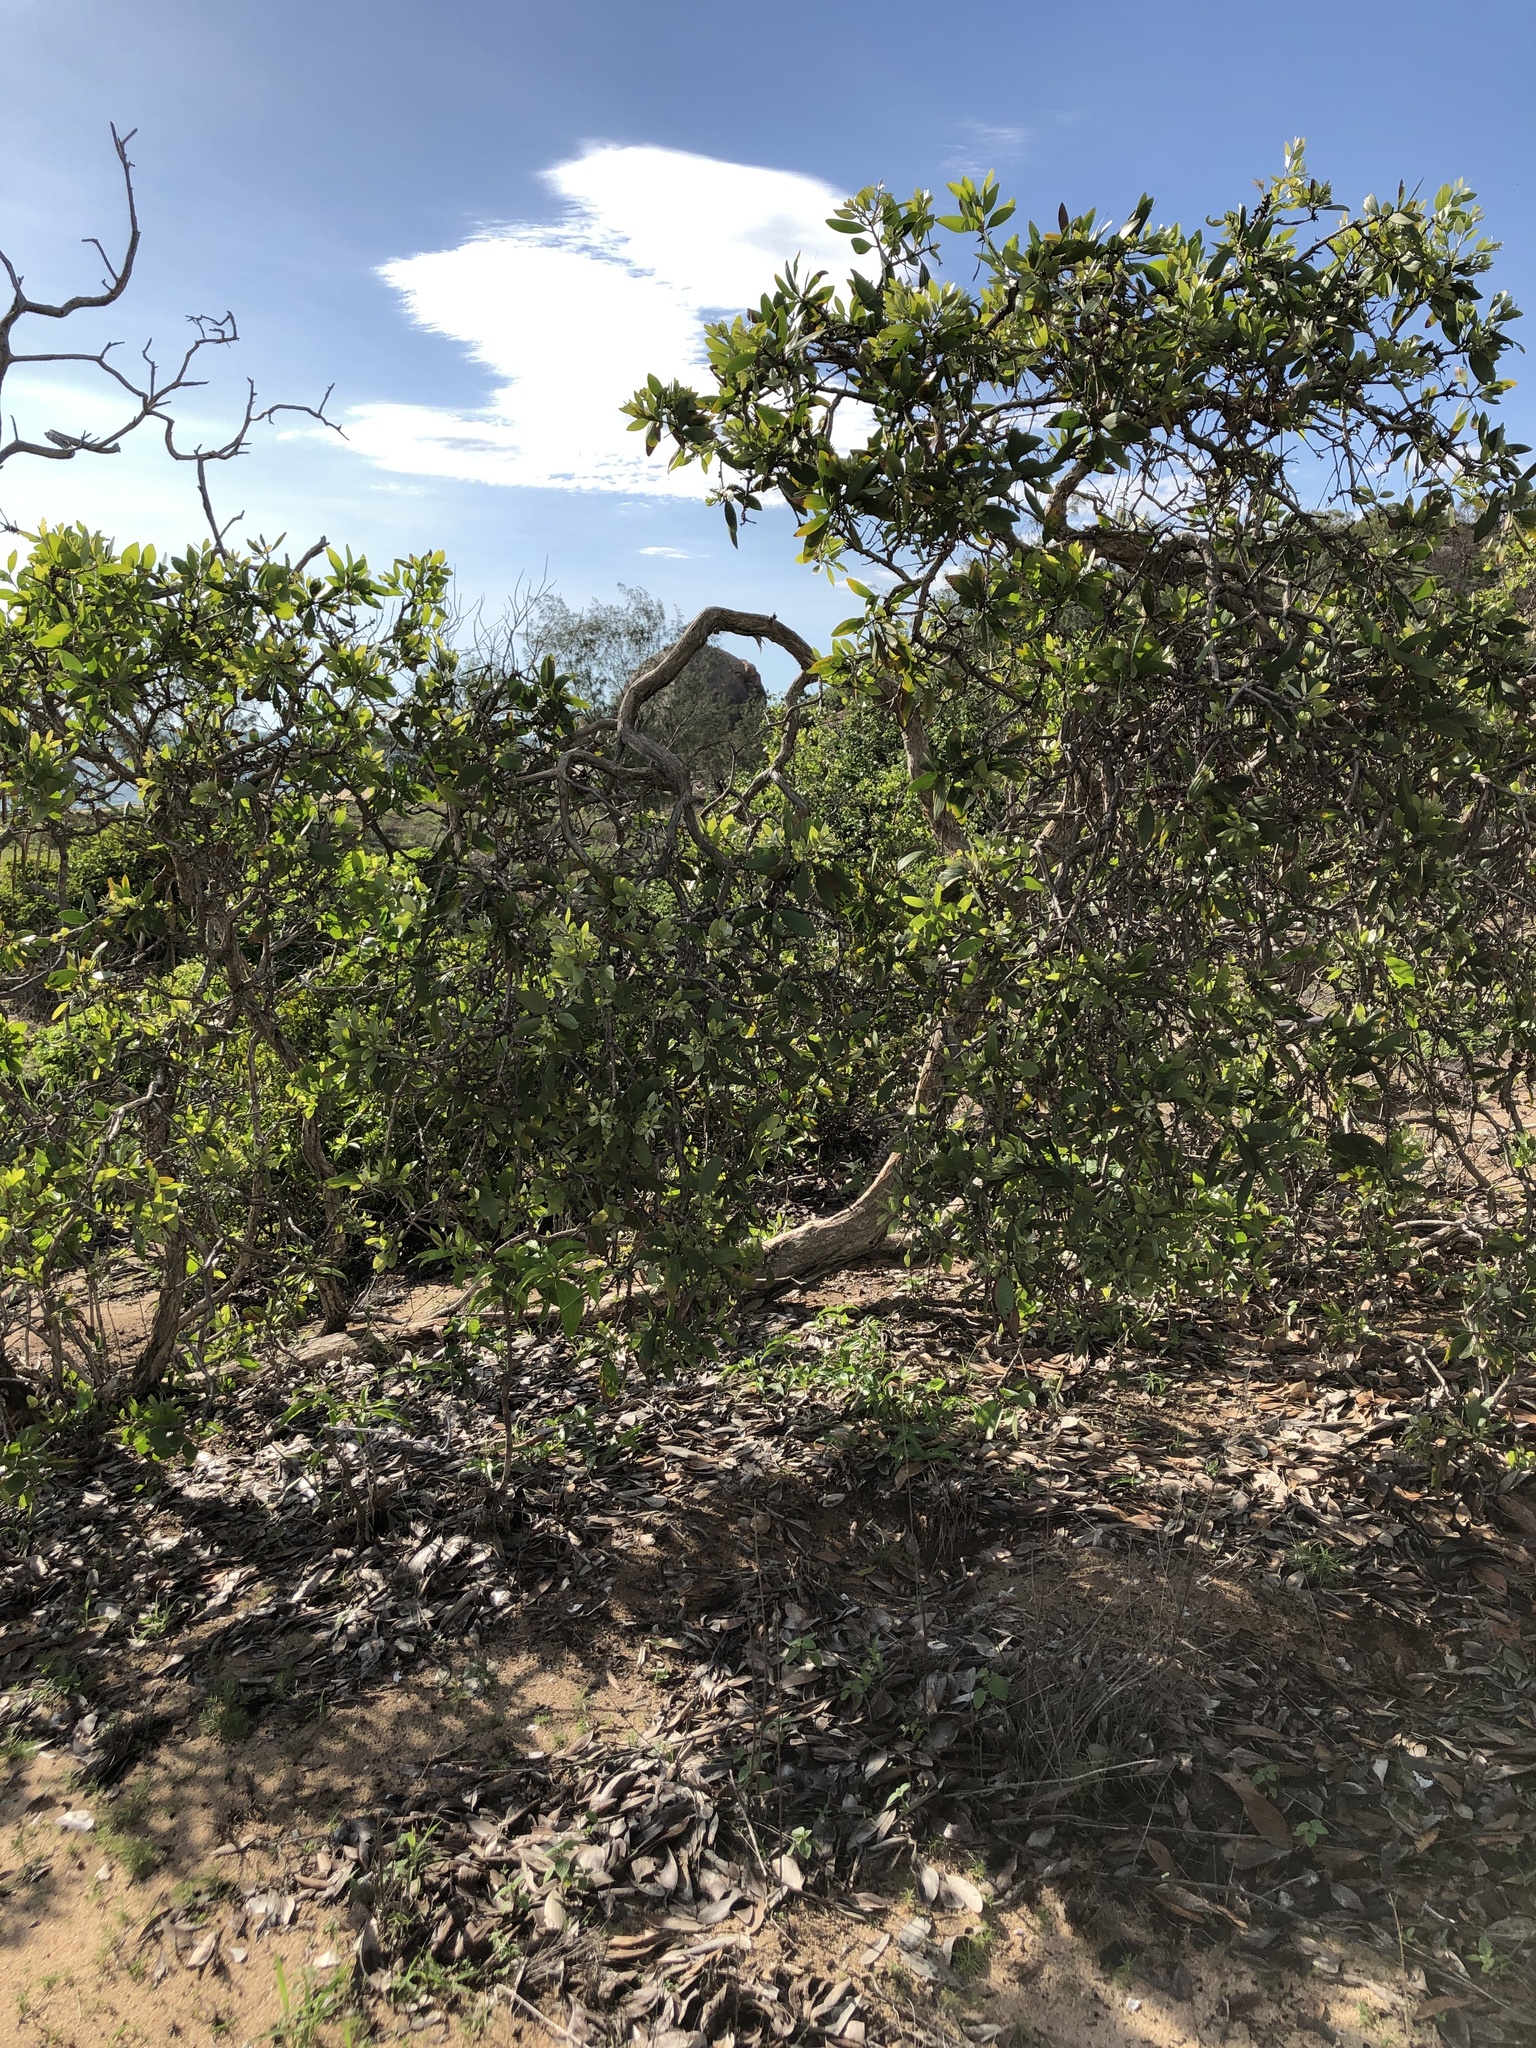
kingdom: Plantae
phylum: Tracheophyta
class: Magnoliopsida
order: Myrtales
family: Myrtaceae
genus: Melaleuca
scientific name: Melaleuca viridiflora
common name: Brown-leaved paperbark
